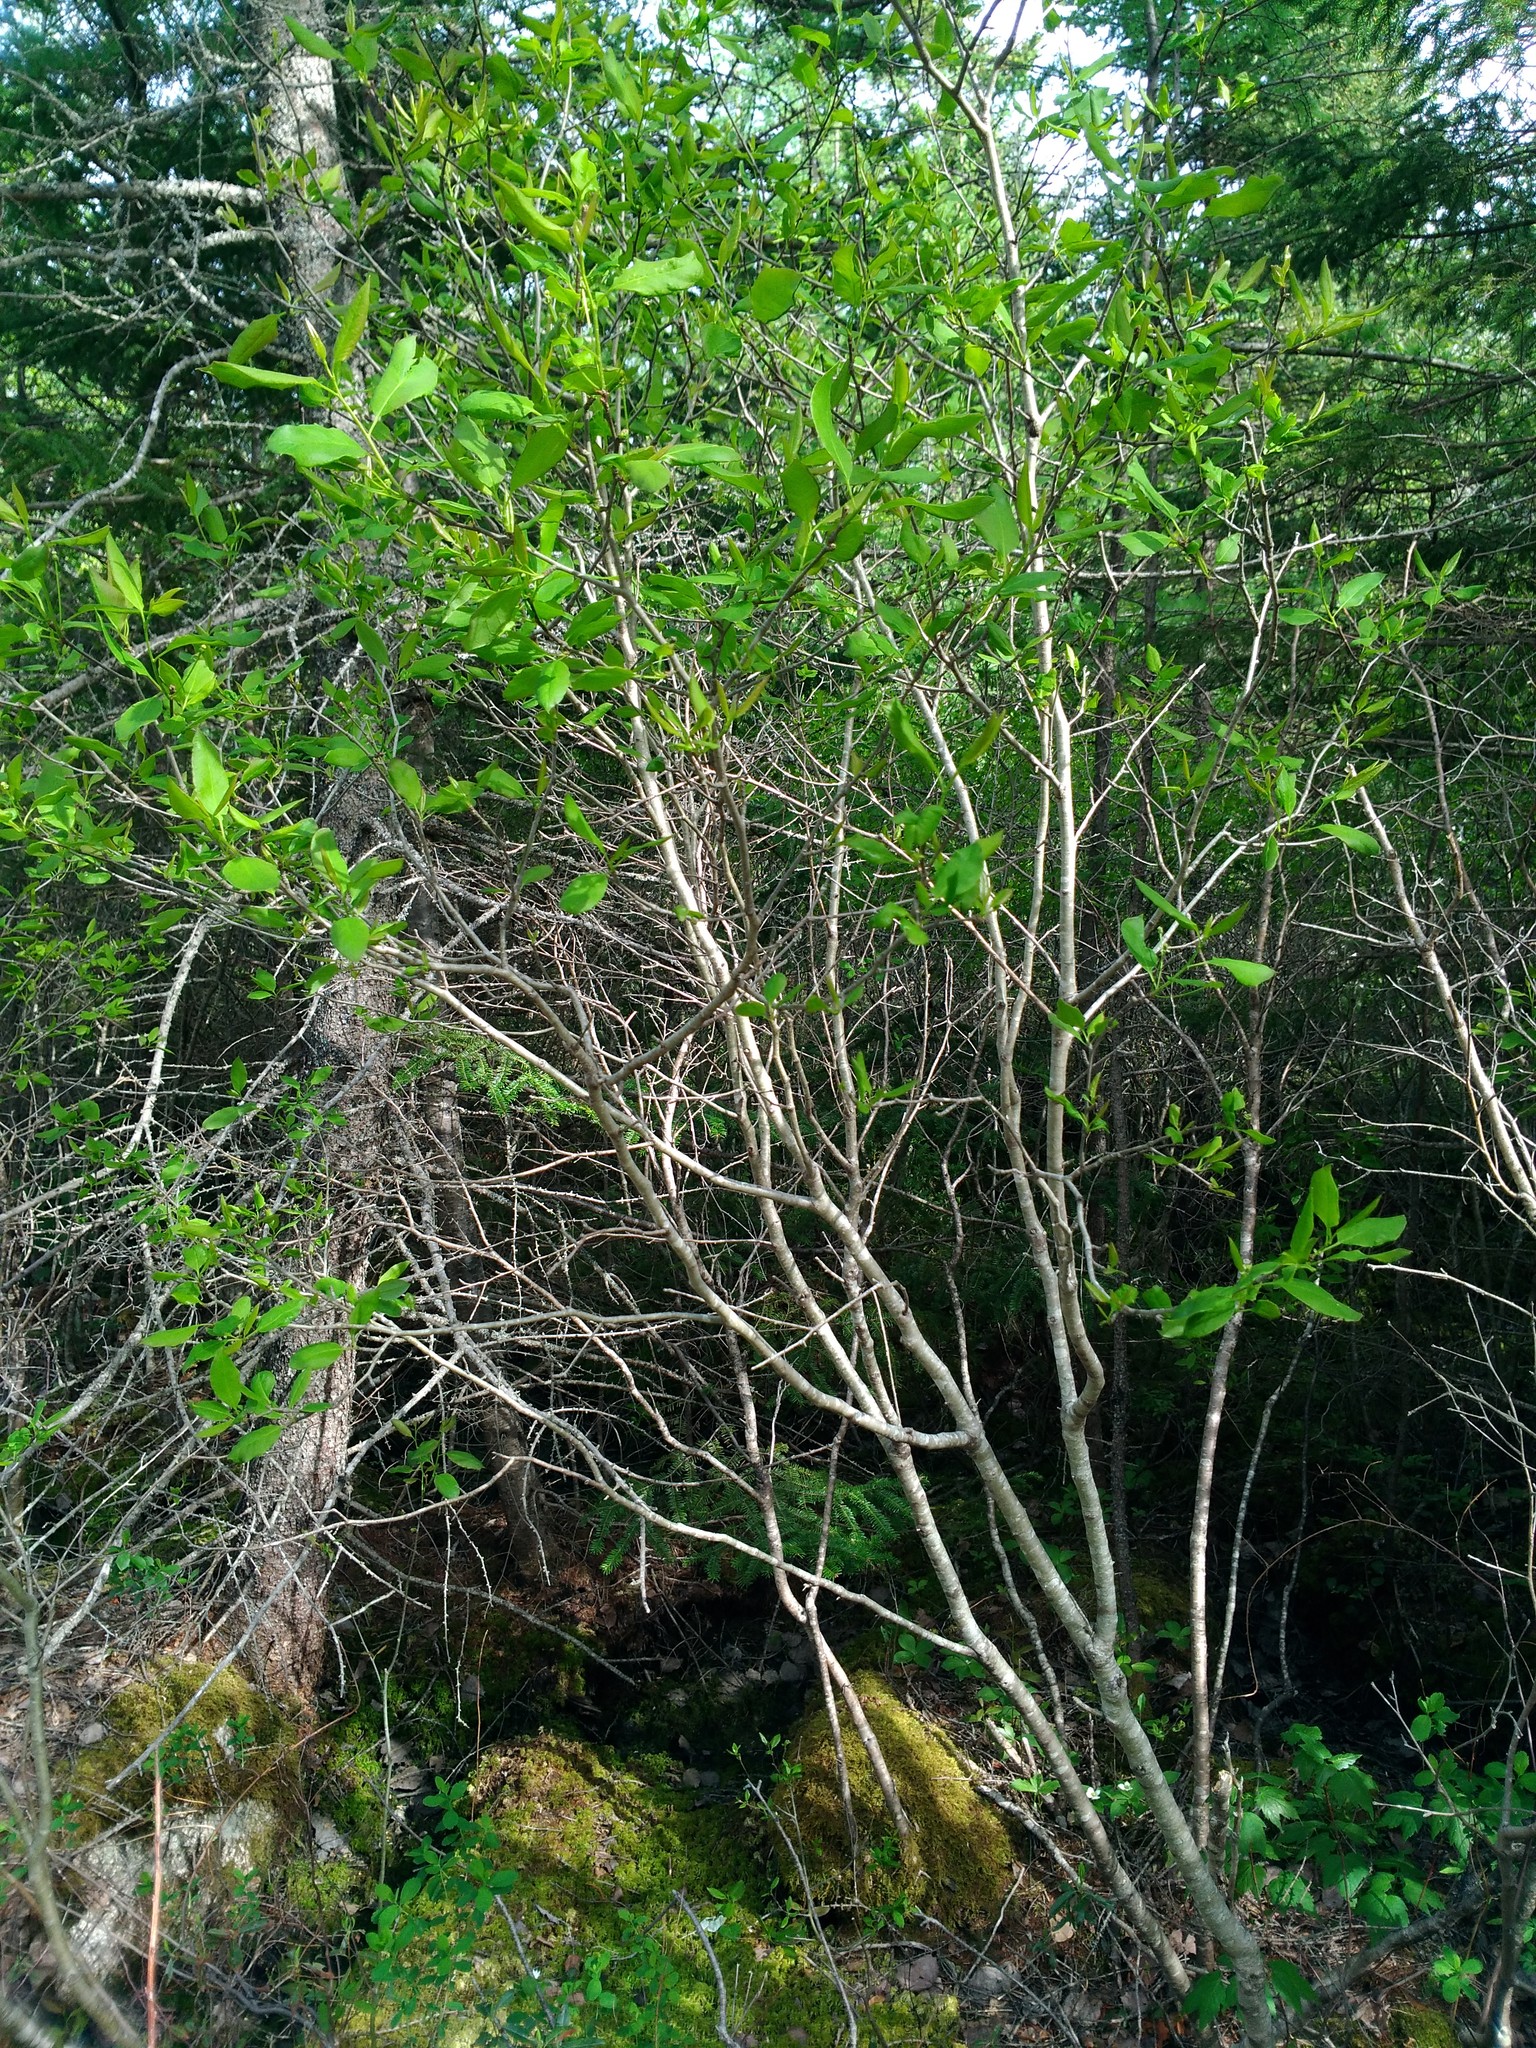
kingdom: Plantae
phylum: Tracheophyta
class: Magnoliopsida
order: Aquifoliales
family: Aquifoliaceae
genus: Ilex
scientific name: Ilex mucronata
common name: Catberry
